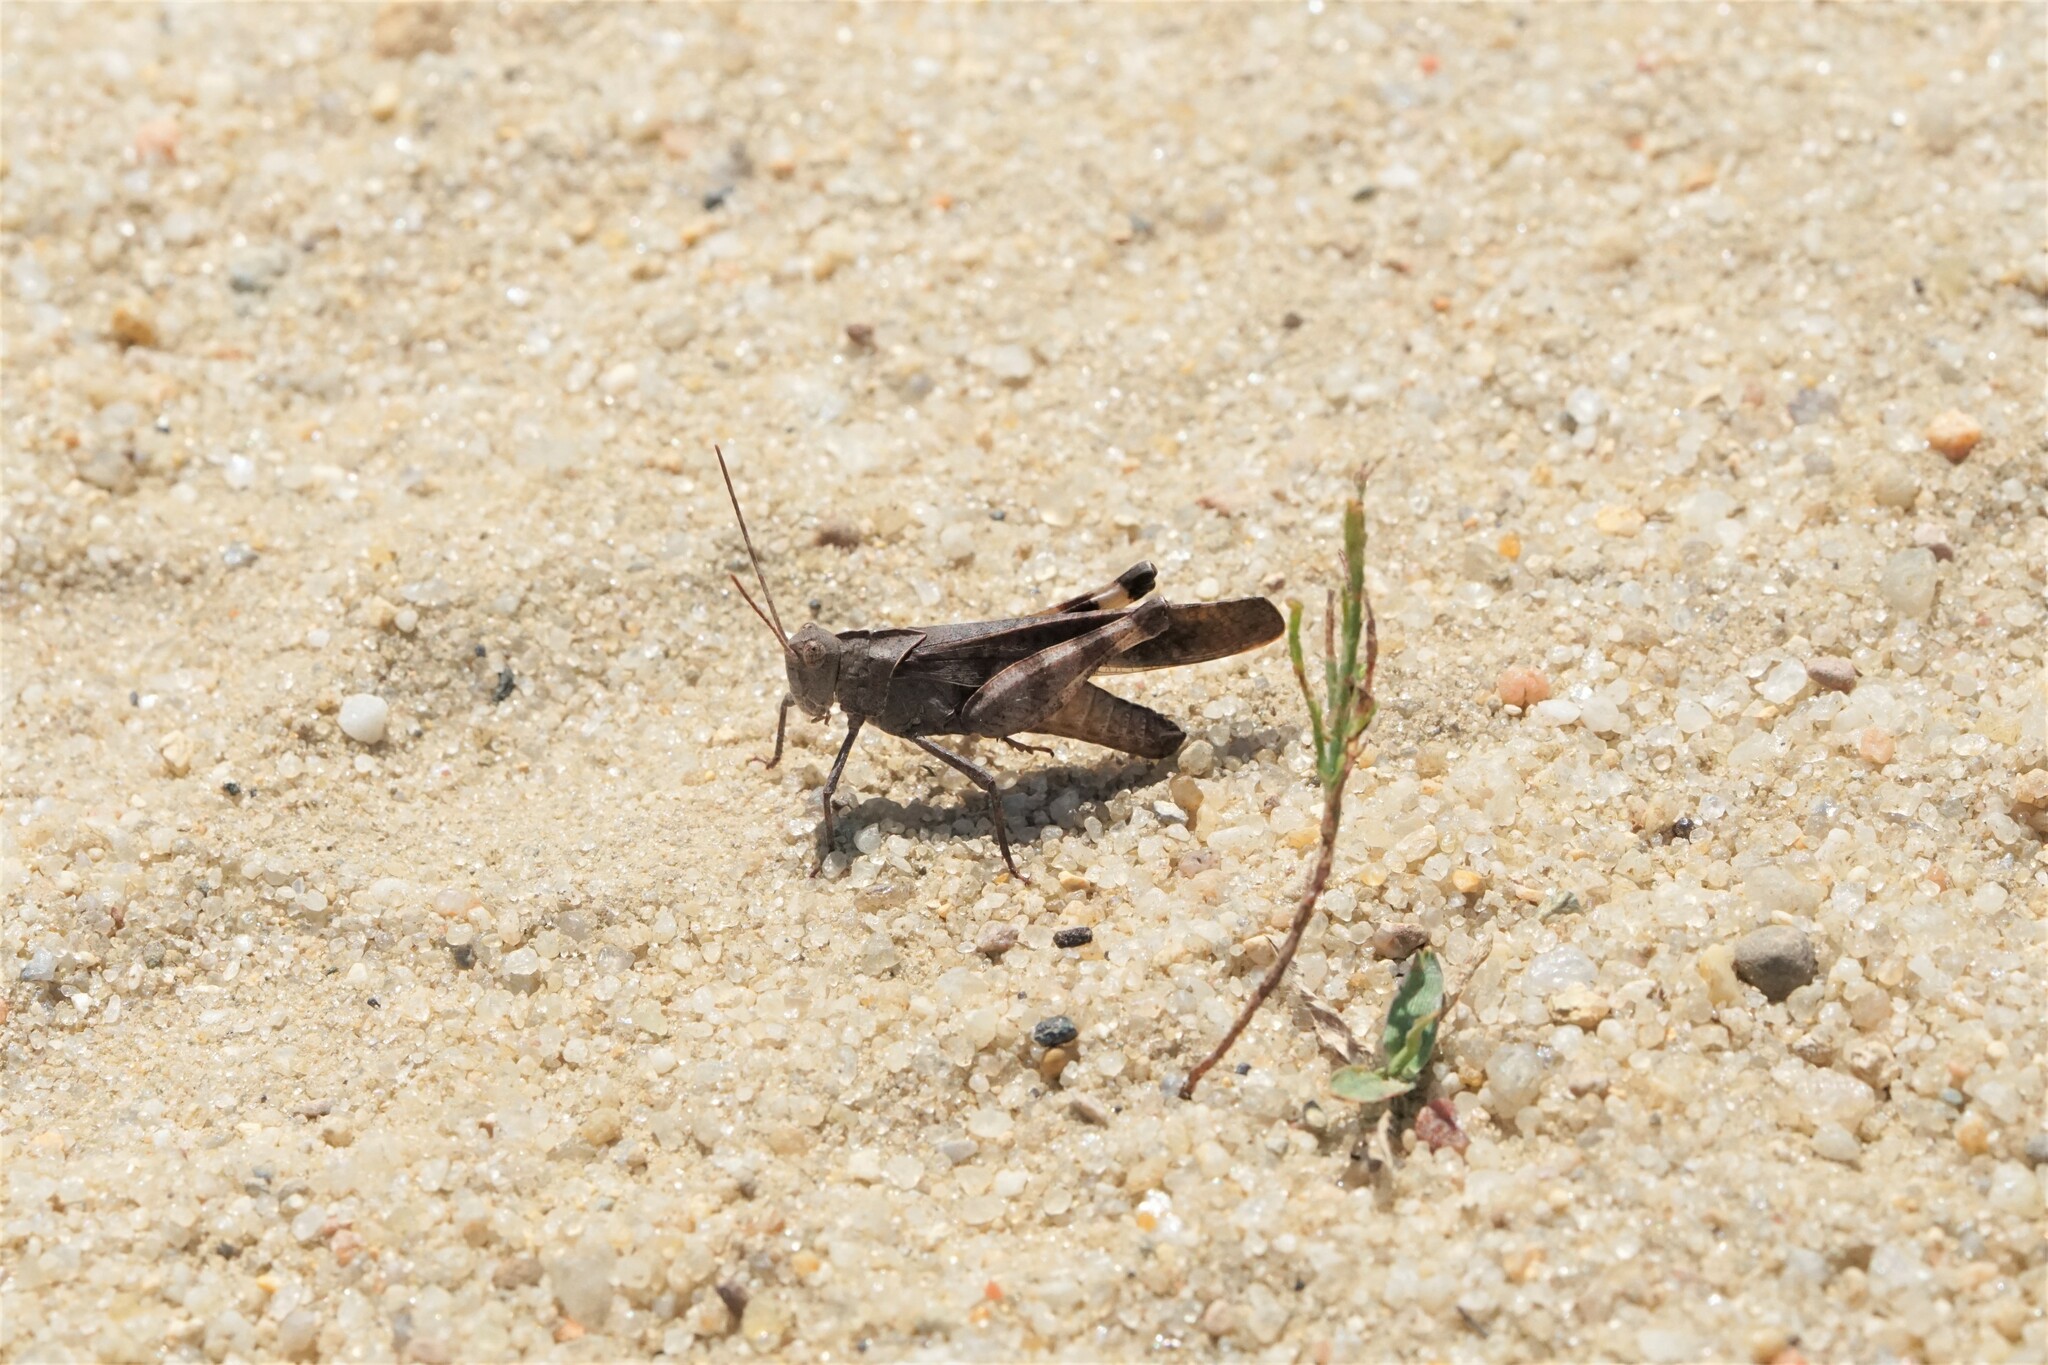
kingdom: Animalia
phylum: Arthropoda
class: Insecta
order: Orthoptera
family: Acrididae
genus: Spharagemon
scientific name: Spharagemon bolli
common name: Boll's grasshopper
